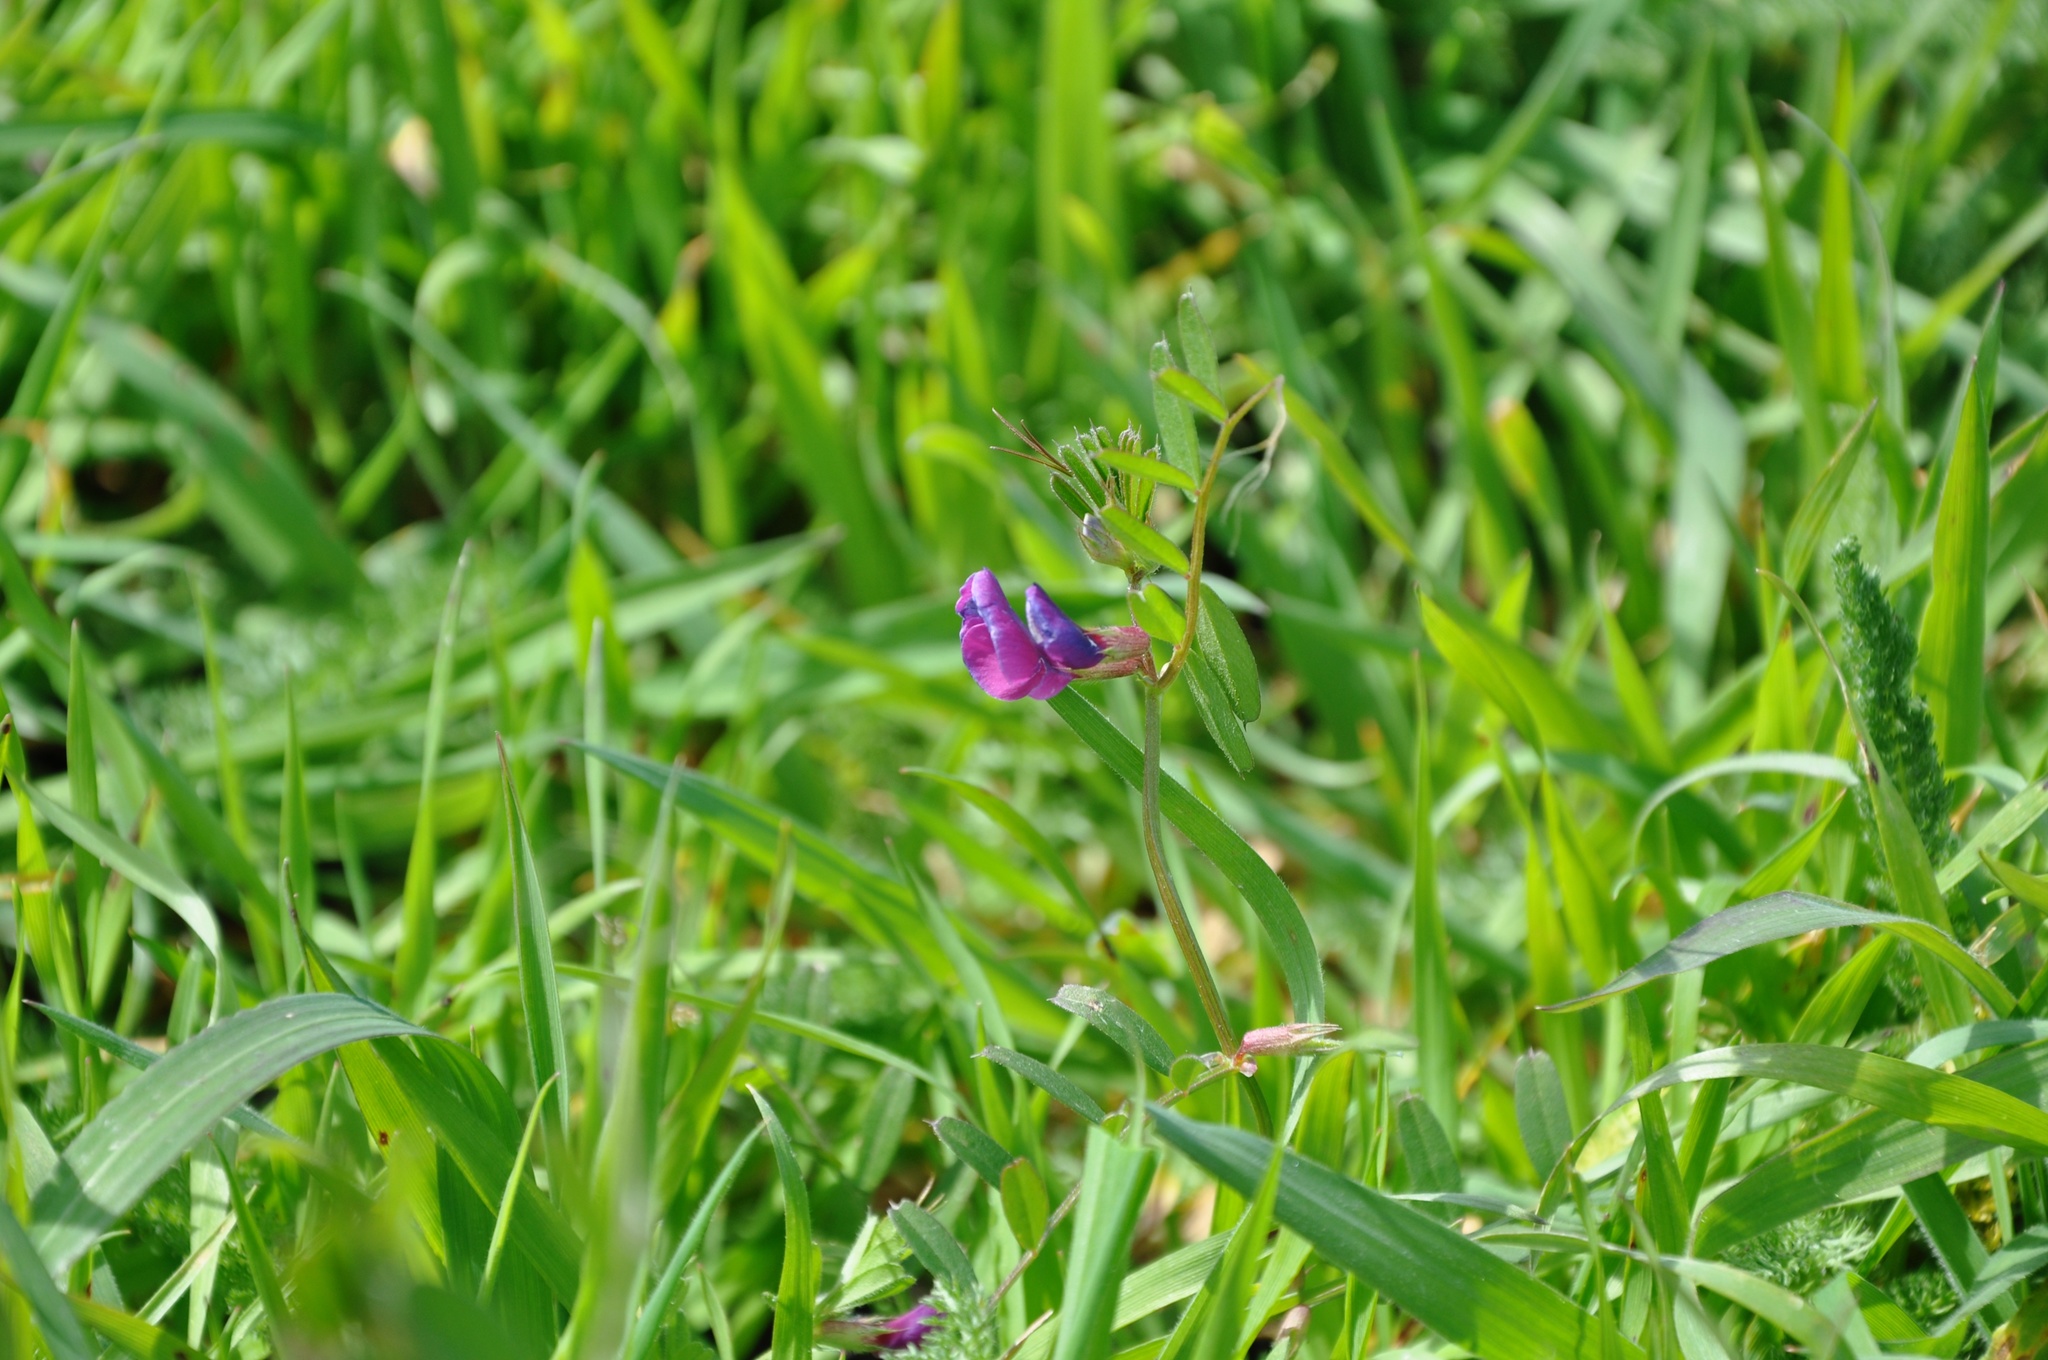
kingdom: Plantae
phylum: Tracheophyta
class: Magnoliopsida
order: Fabales
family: Fabaceae
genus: Vicia
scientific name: Vicia sativa
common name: Garden vetch
